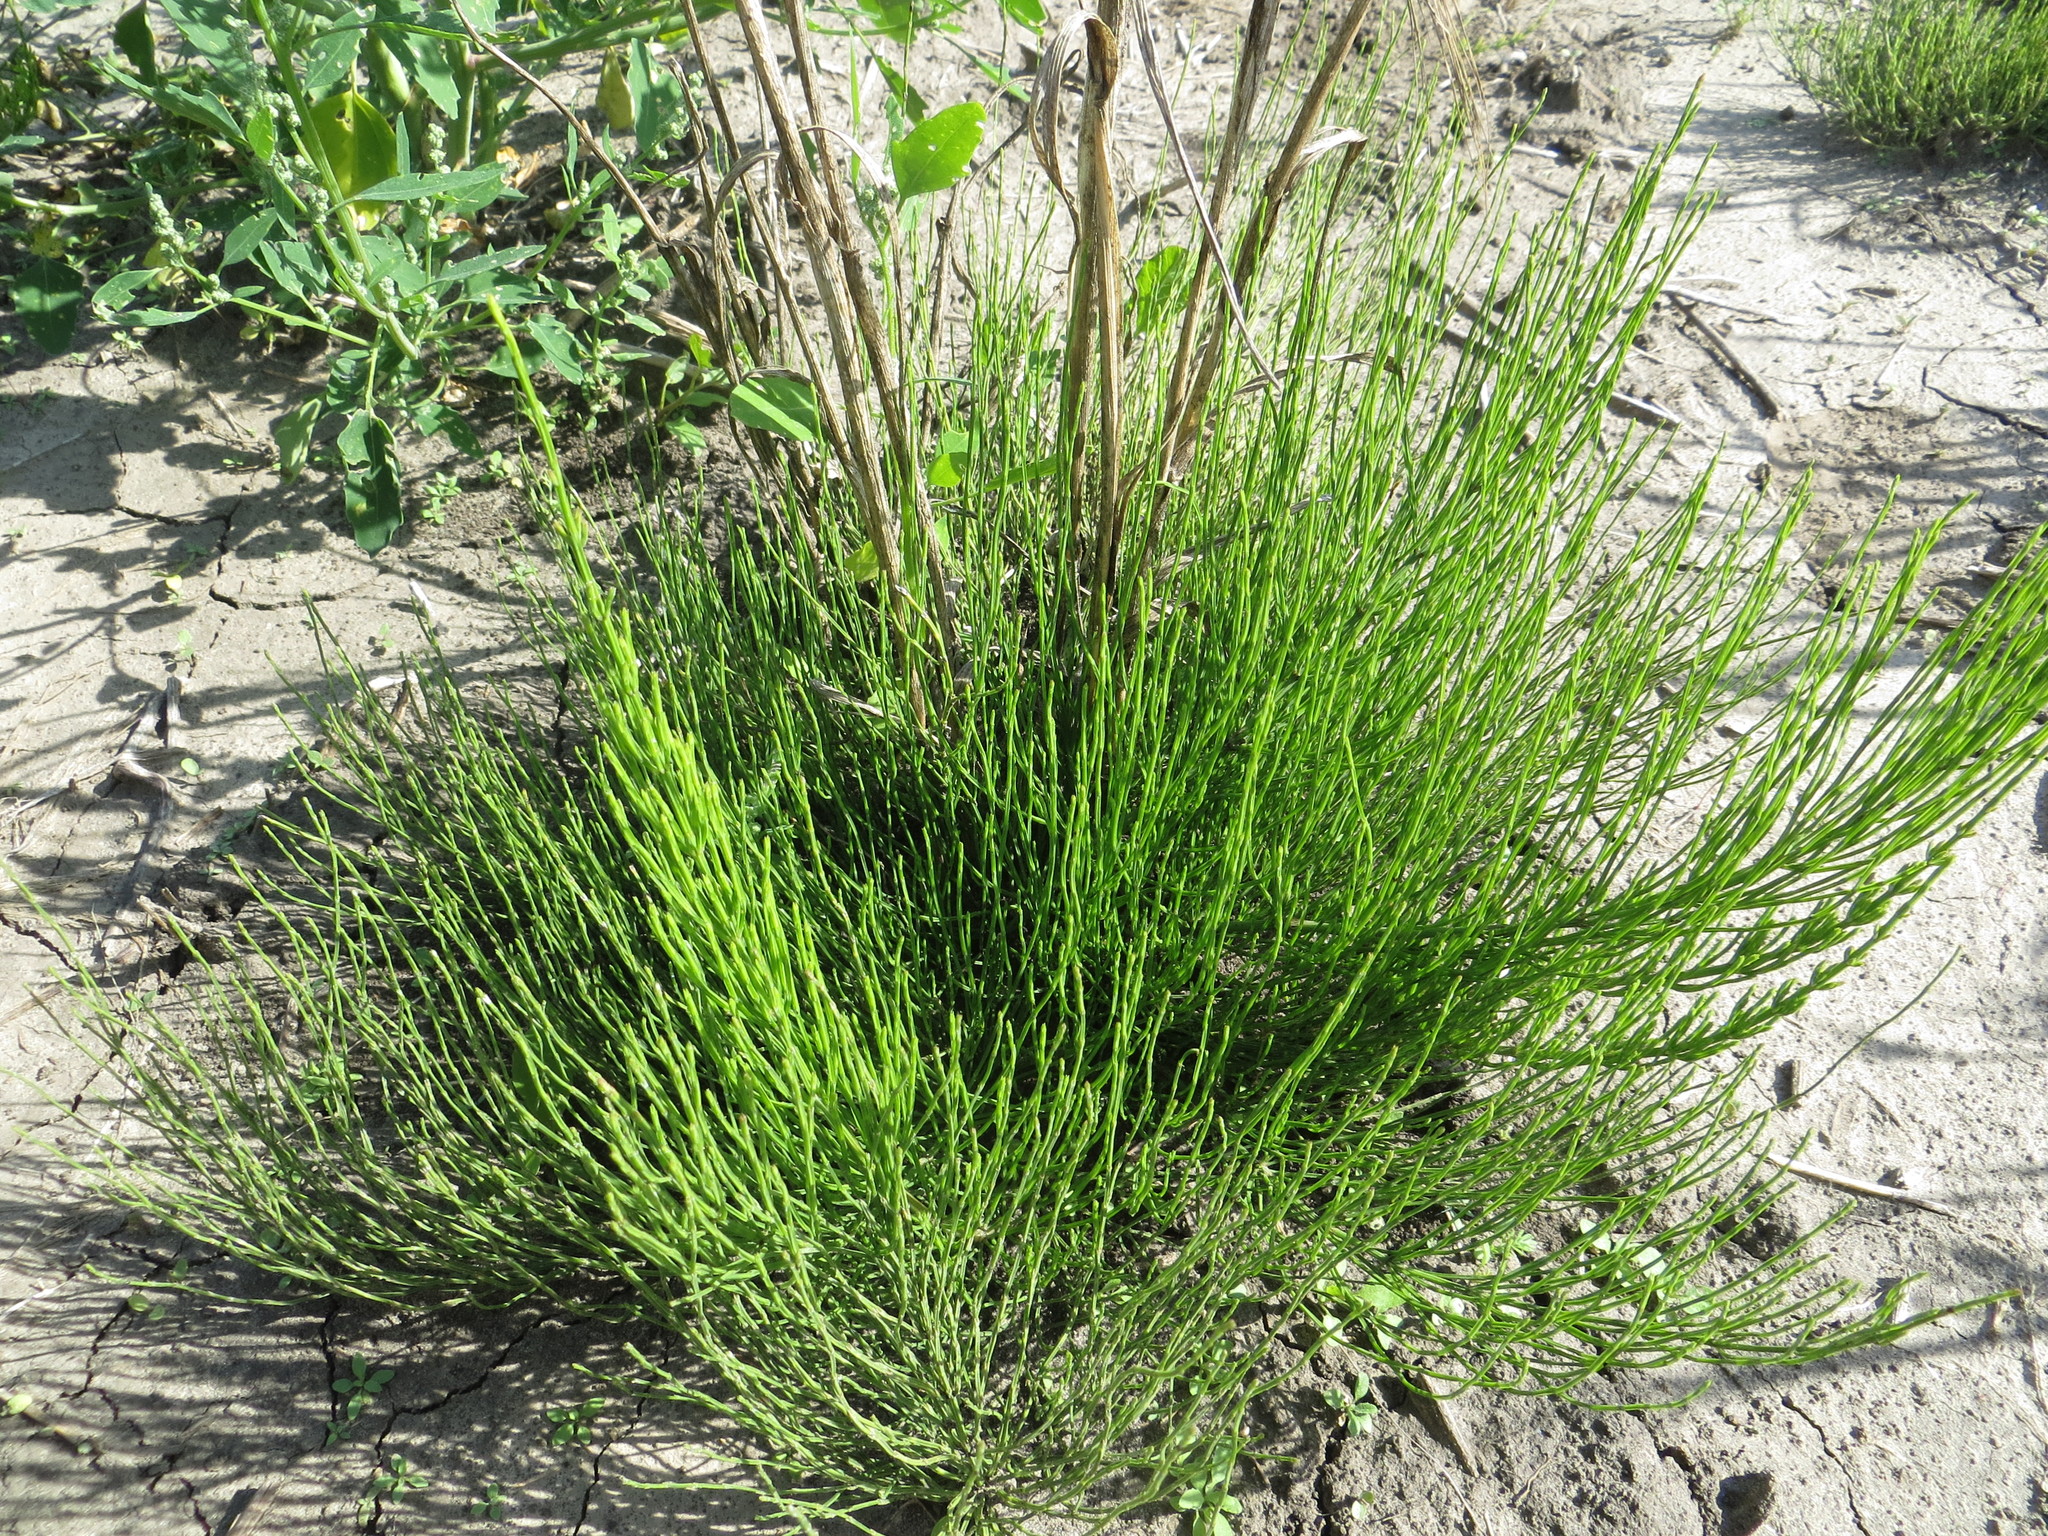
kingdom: Plantae
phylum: Tracheophyta
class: Polypodiopsida
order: Equisetales
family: Equisetaceae
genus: Equisetum
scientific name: Equisetum arvense
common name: Field horsetail
